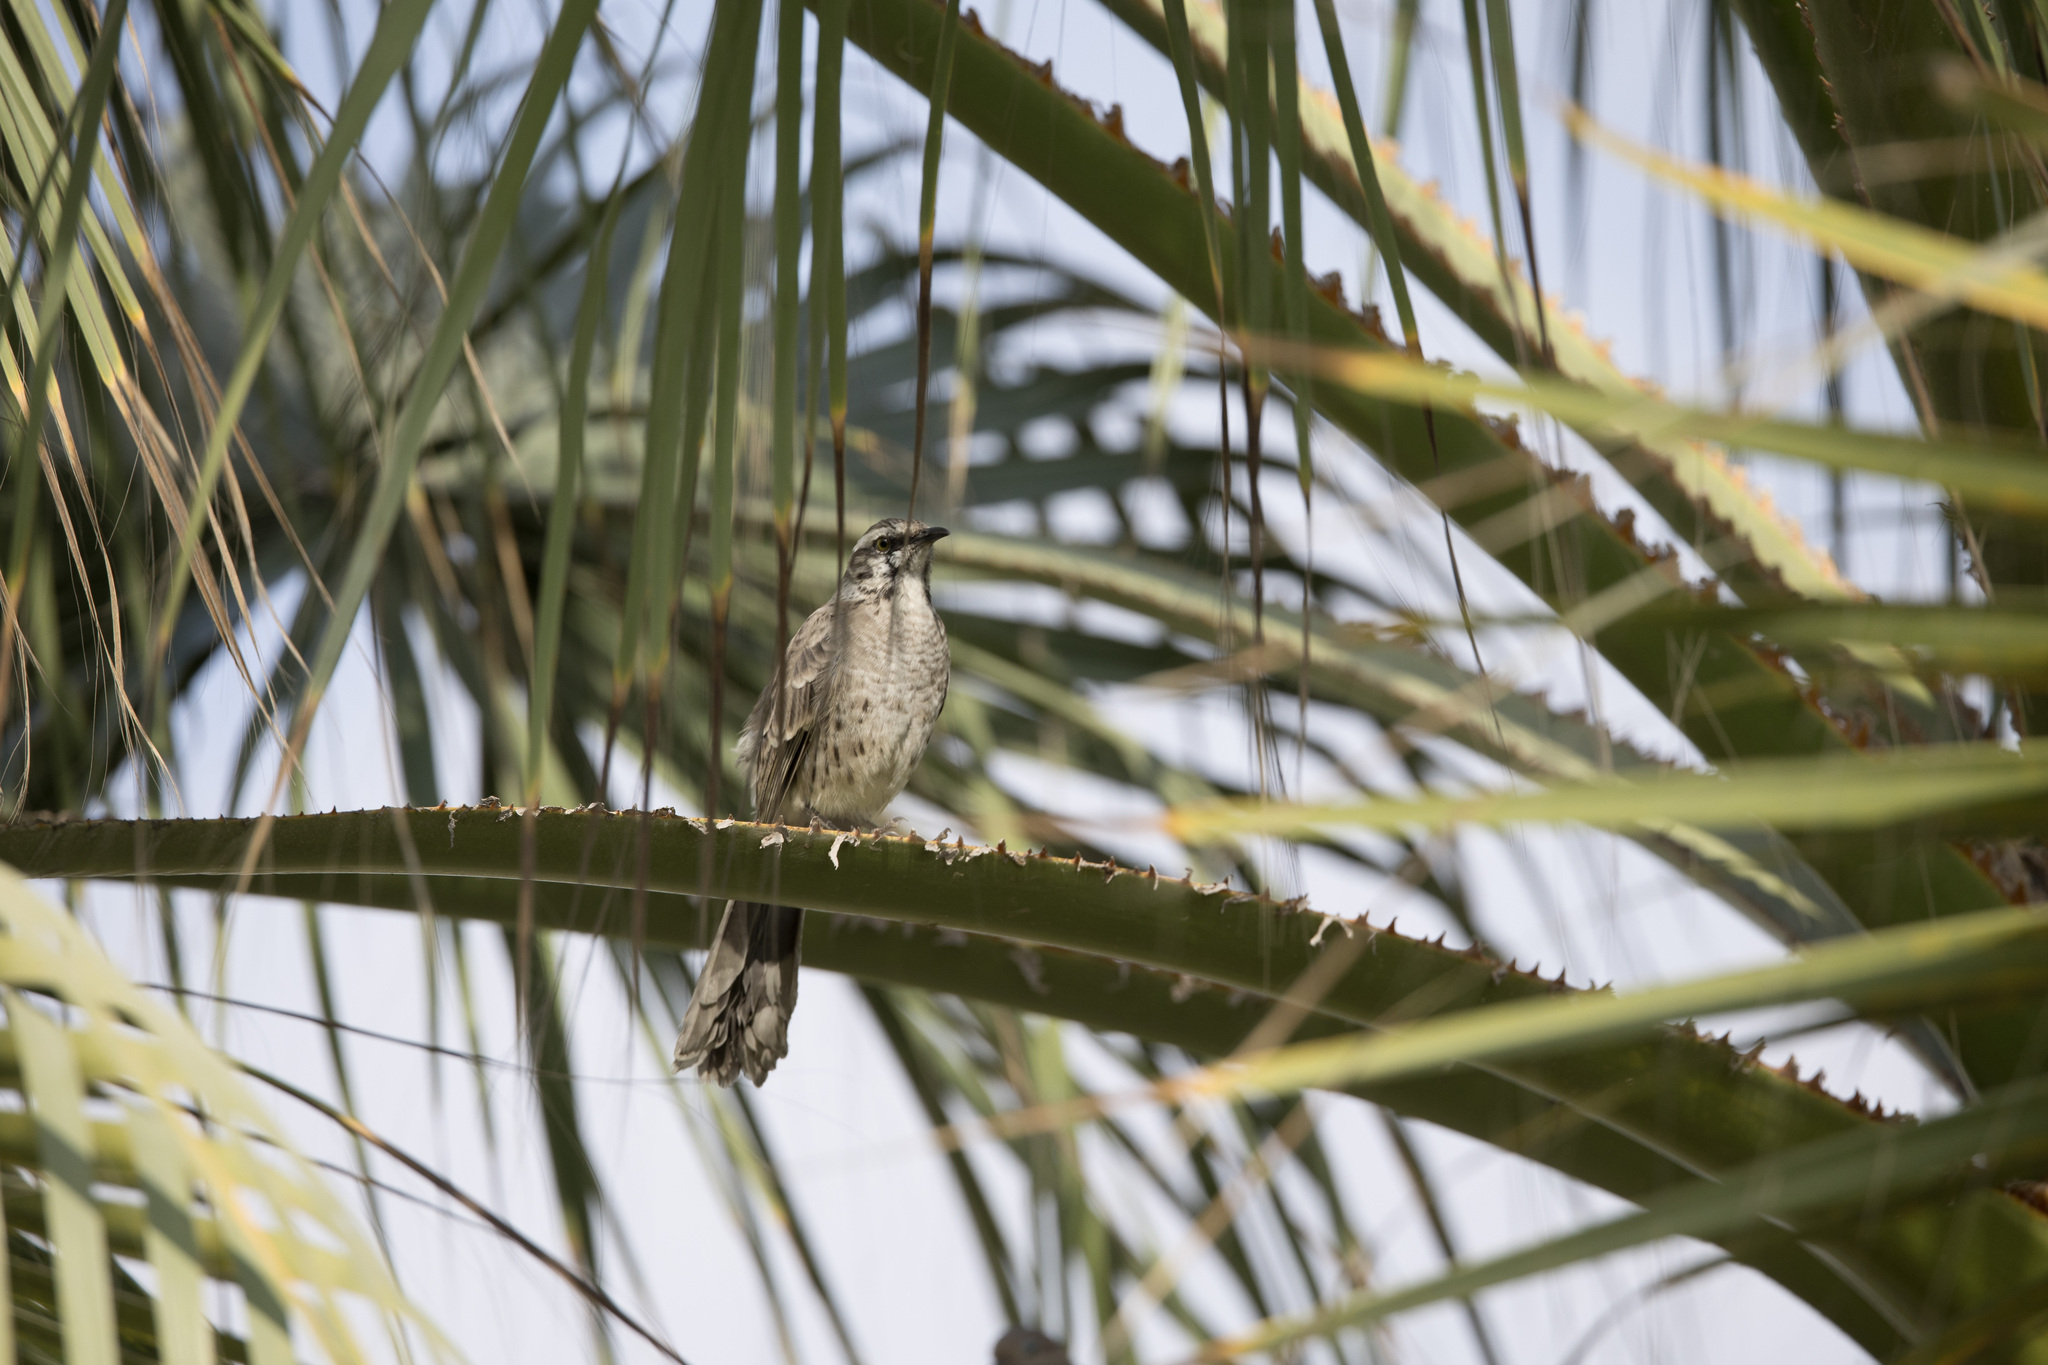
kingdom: Animalia
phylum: Chordata
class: Aves
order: Passeriformes
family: Mimidae
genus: Mimus
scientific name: Mimus longicaudatus
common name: Long-tailed mockingbird
